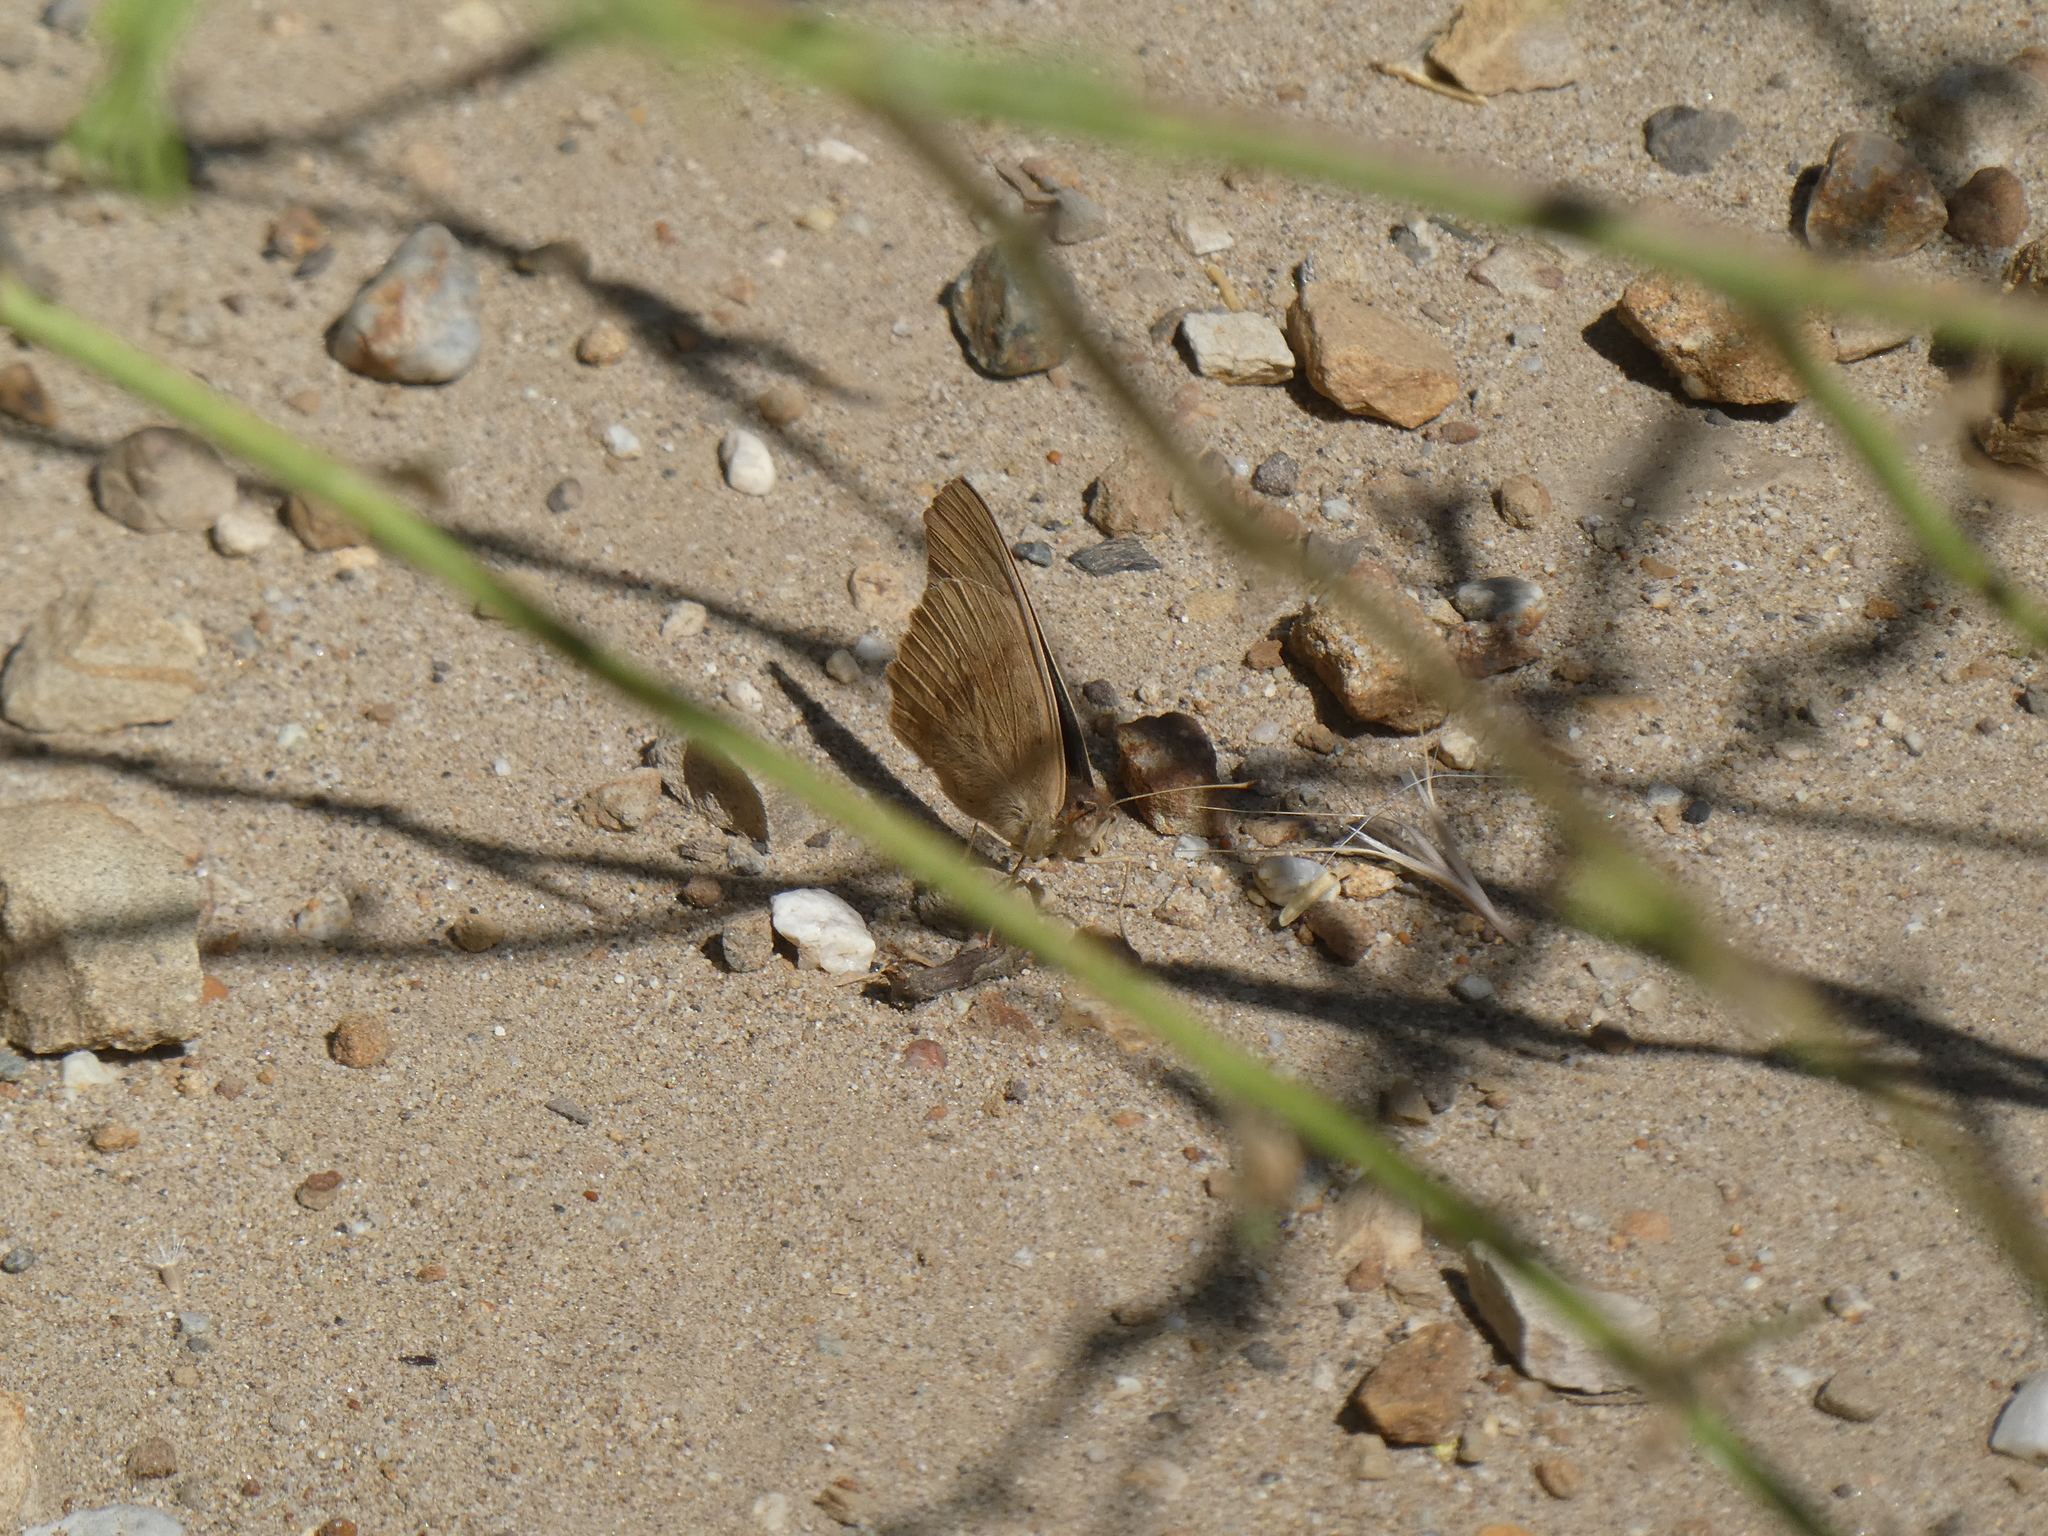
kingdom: Animalia
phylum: Arthropoda
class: Insecta
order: Lepidoptera
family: Nymphalidae
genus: Junonia
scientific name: Junonia grisea
